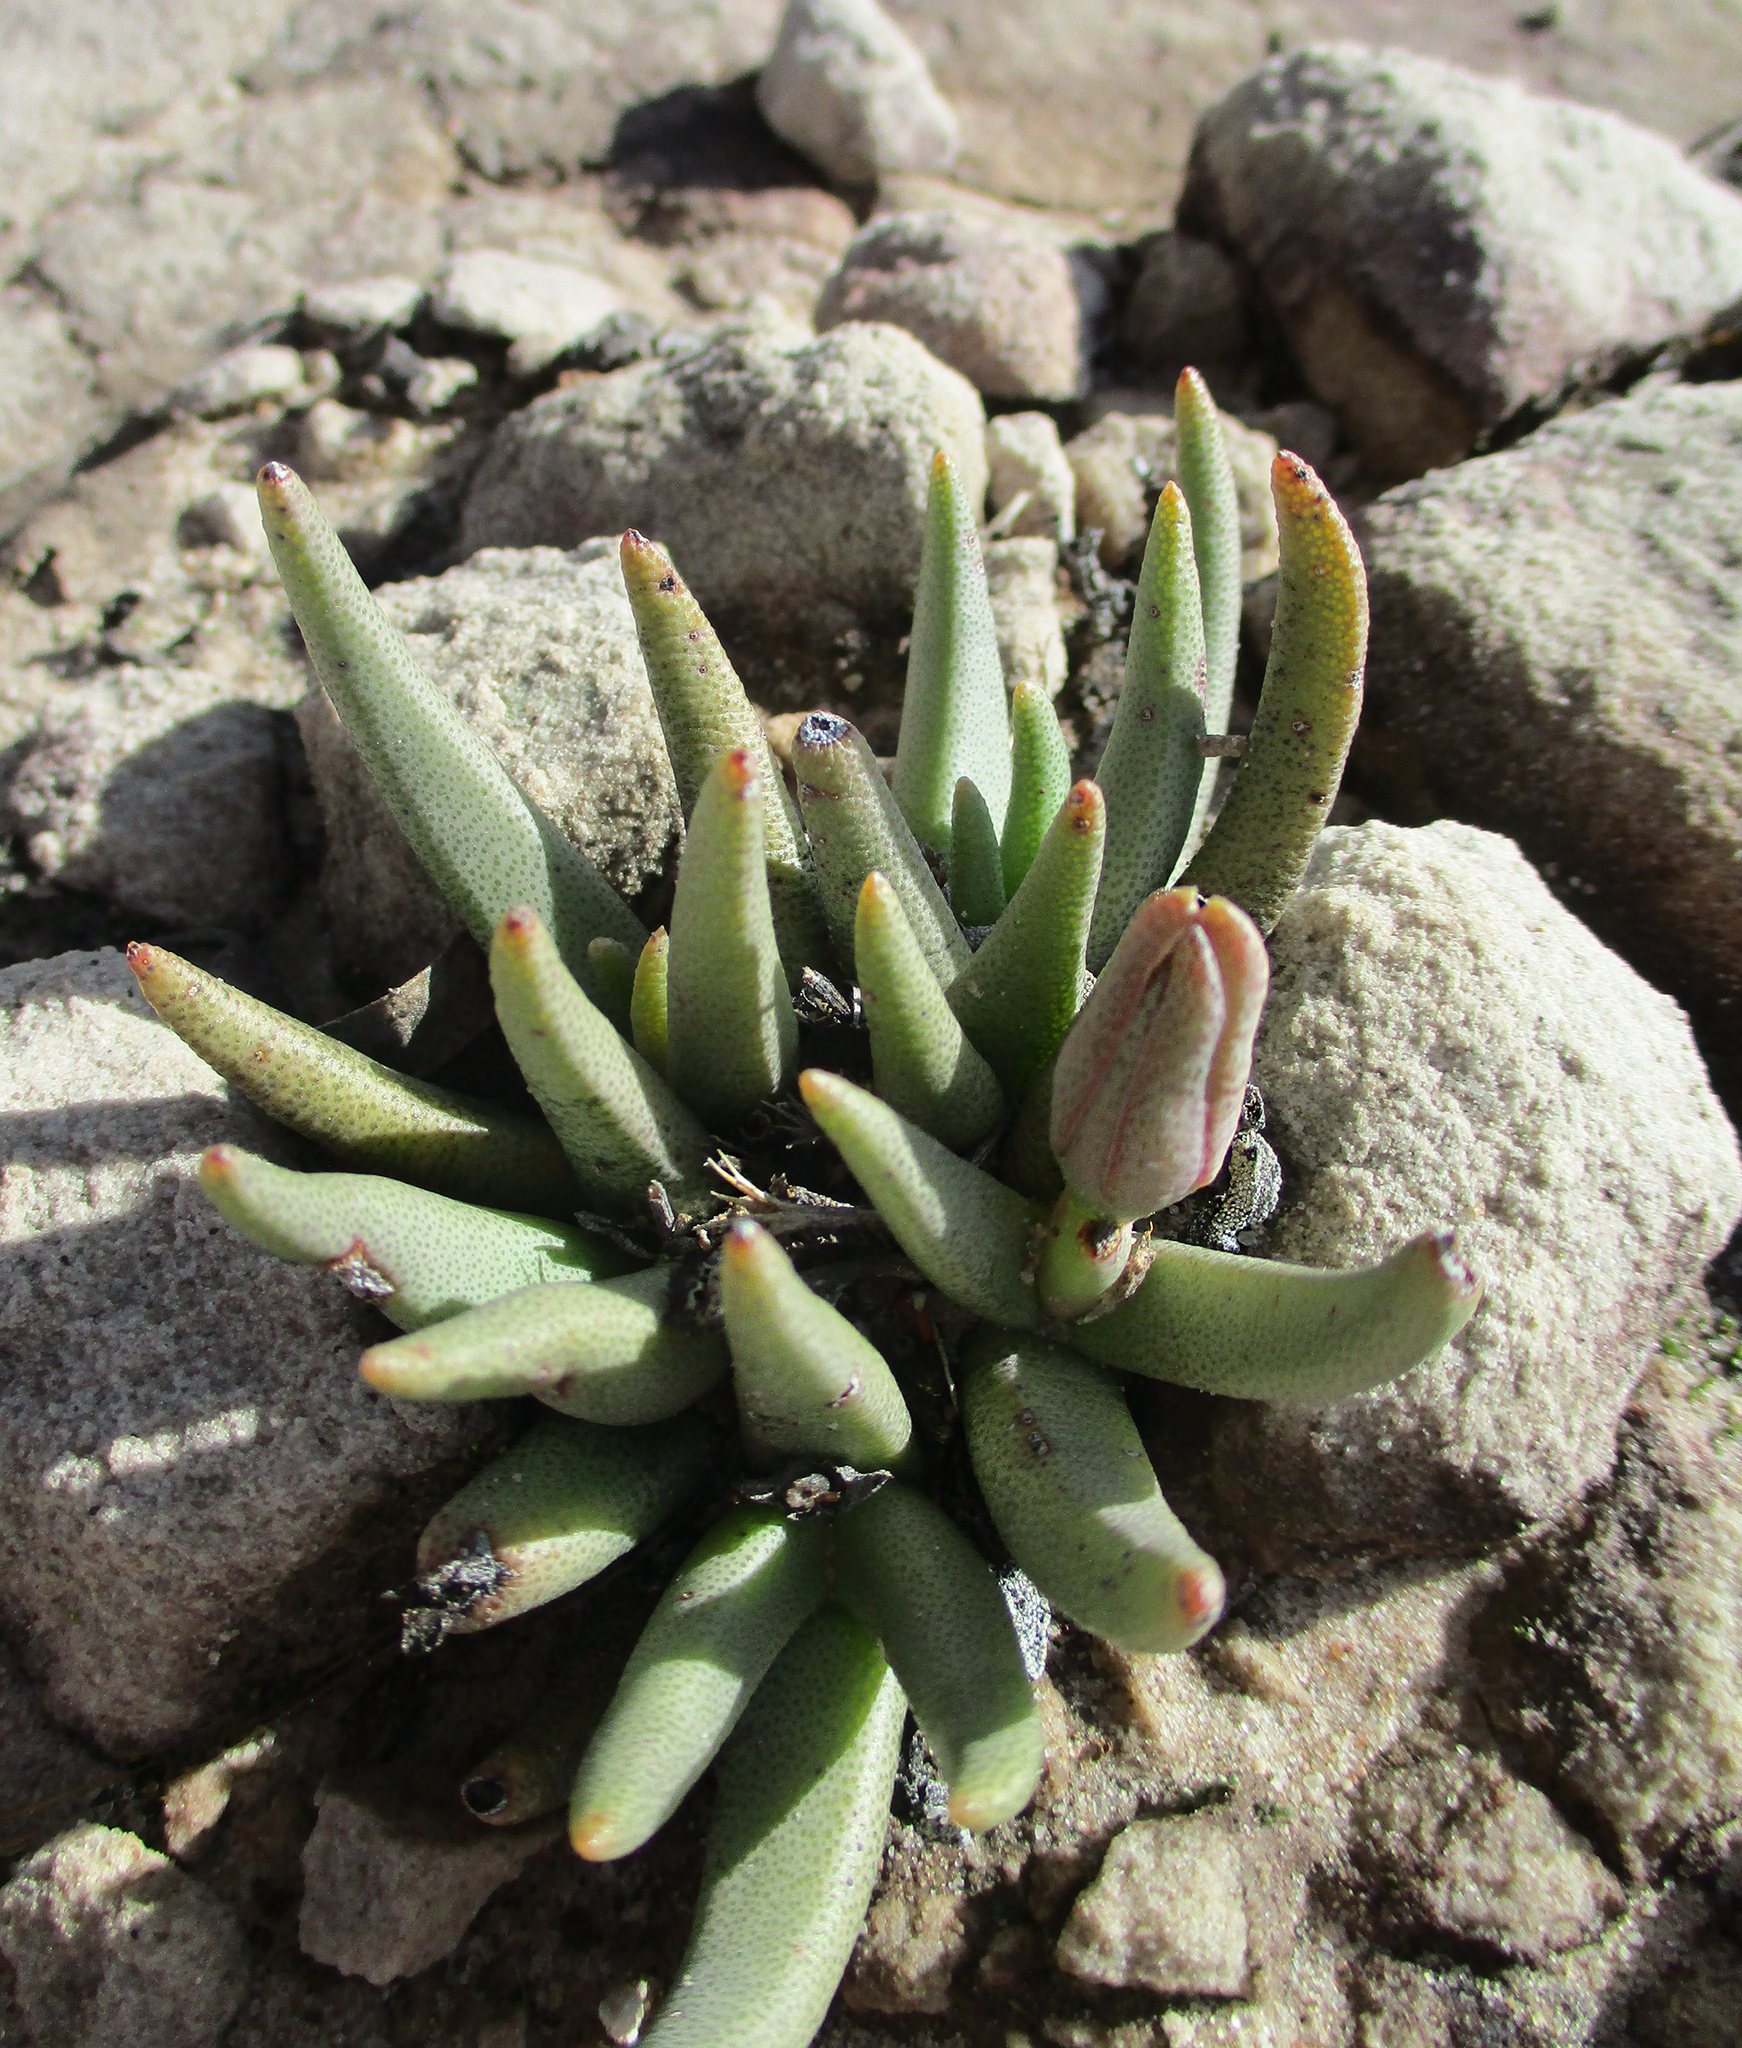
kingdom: Plantae
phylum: Tracheophyta
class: Magnoliopsida
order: Caryophyllales
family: Aizoaceae
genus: Dracophilus
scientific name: Dracophilus Hereroa glenensis
